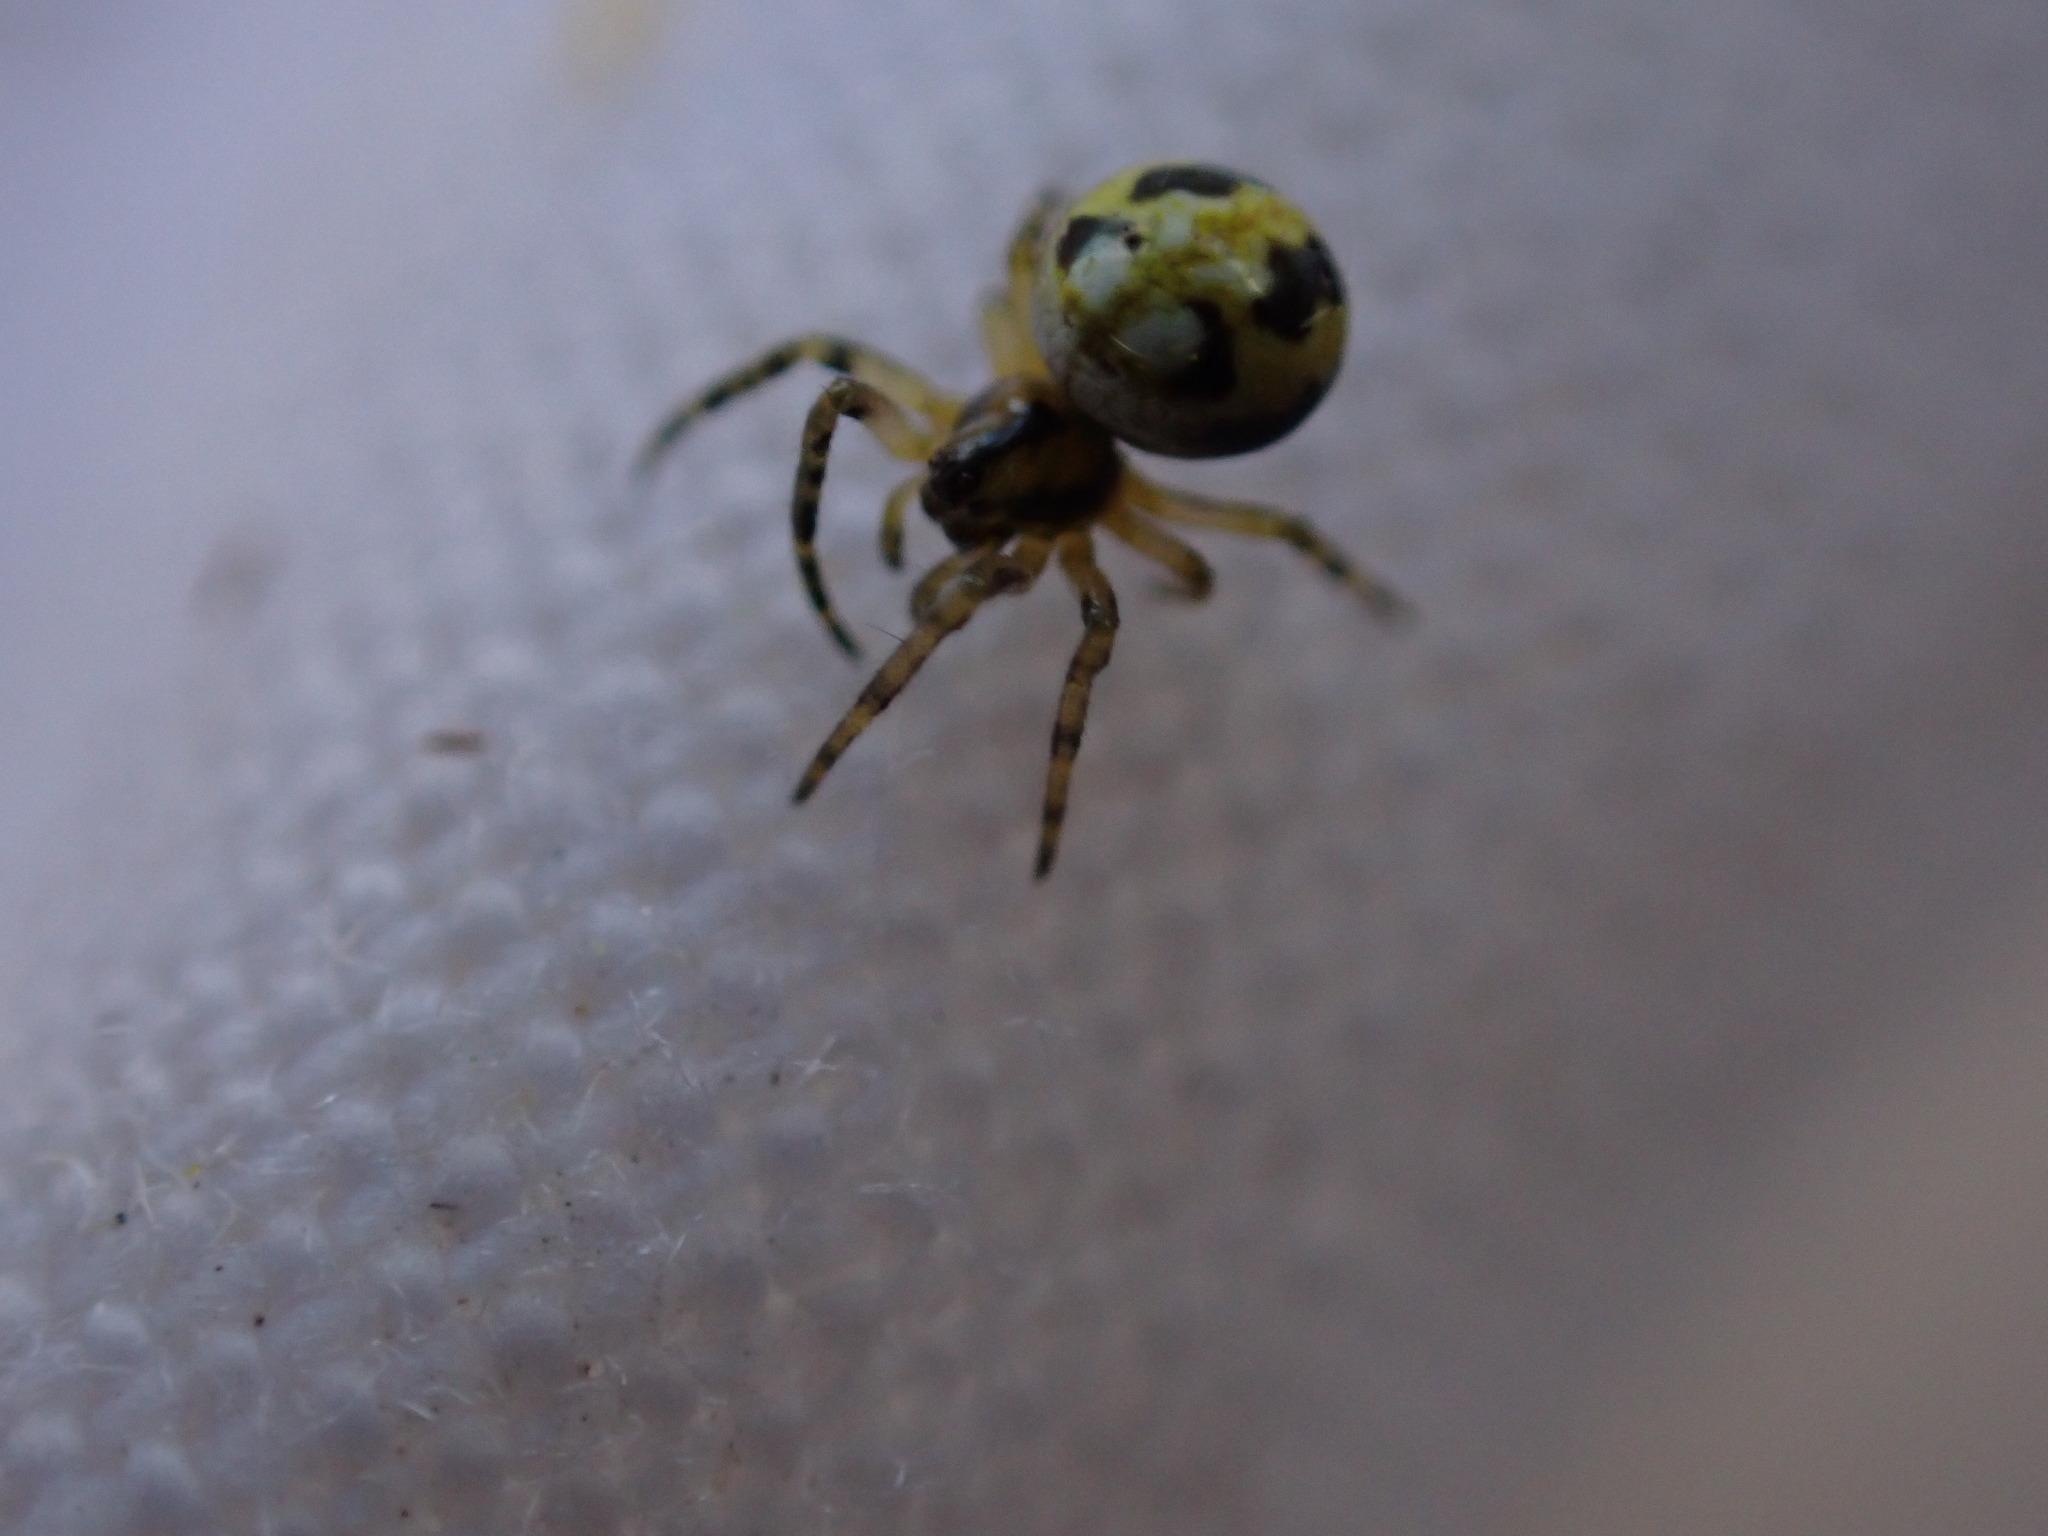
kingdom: Animalia
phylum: Arthropoda
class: Arachnida
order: Araneae
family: Araneidae
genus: Neoscona
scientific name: Neoscona adianta
